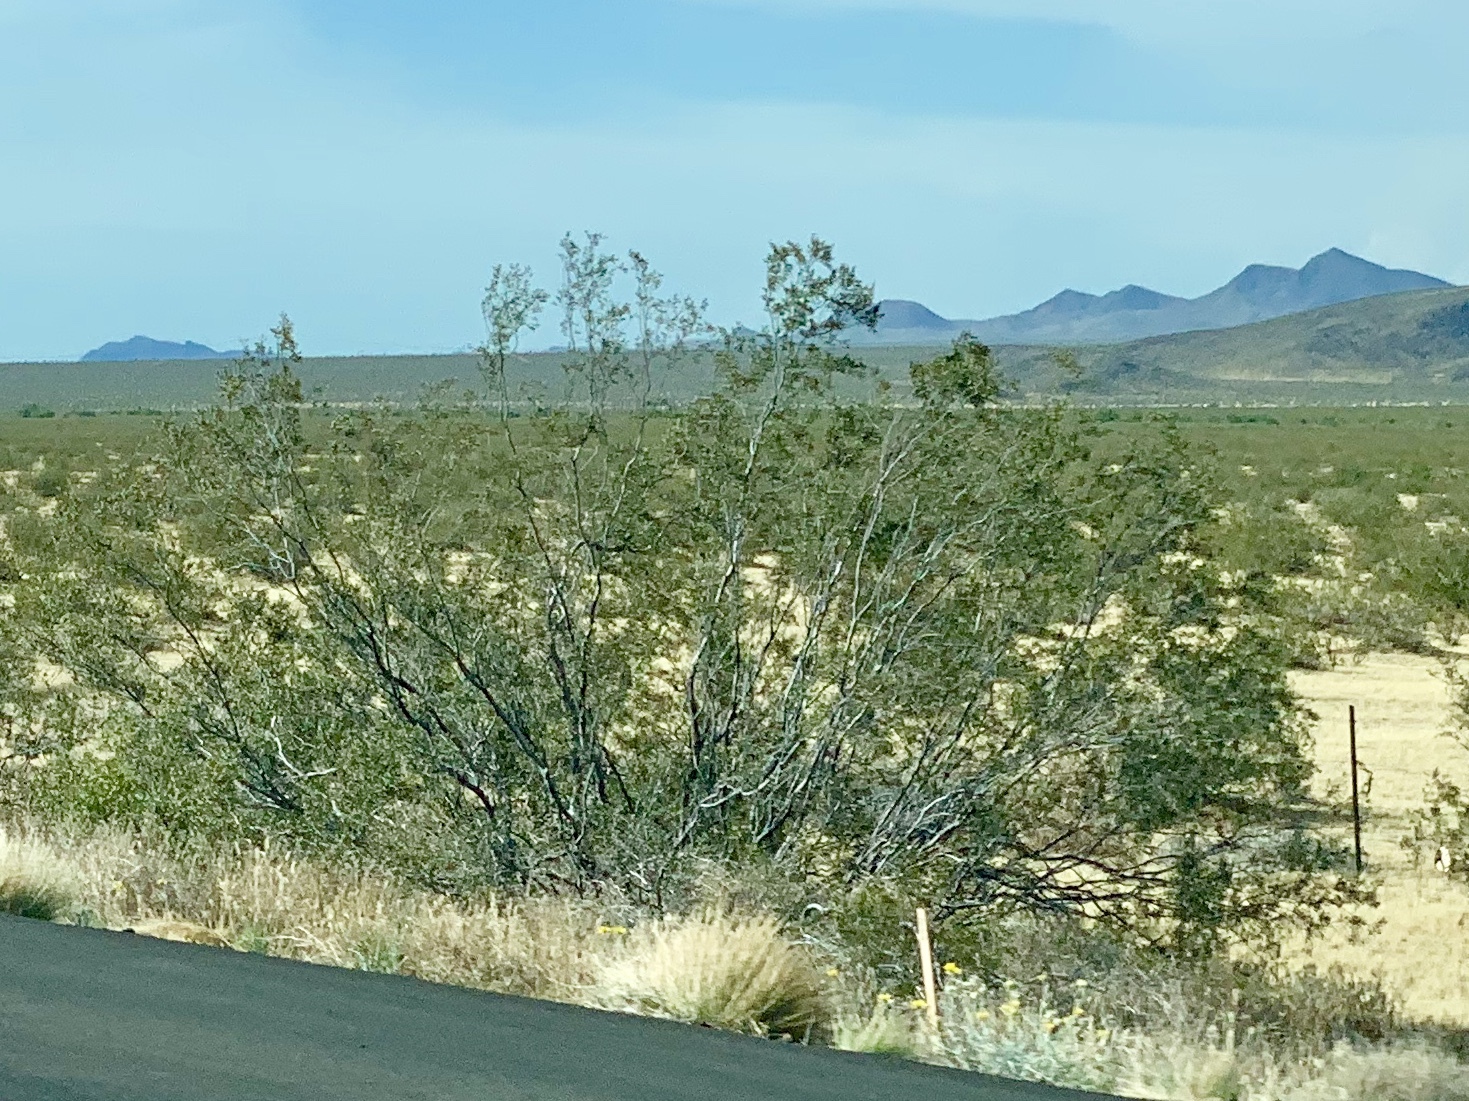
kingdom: Plantae
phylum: Tracheophyta
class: Magnoliopsida
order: Zygophyllales
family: Zygophyllaceae
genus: Larrea
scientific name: Larrea tridentata
